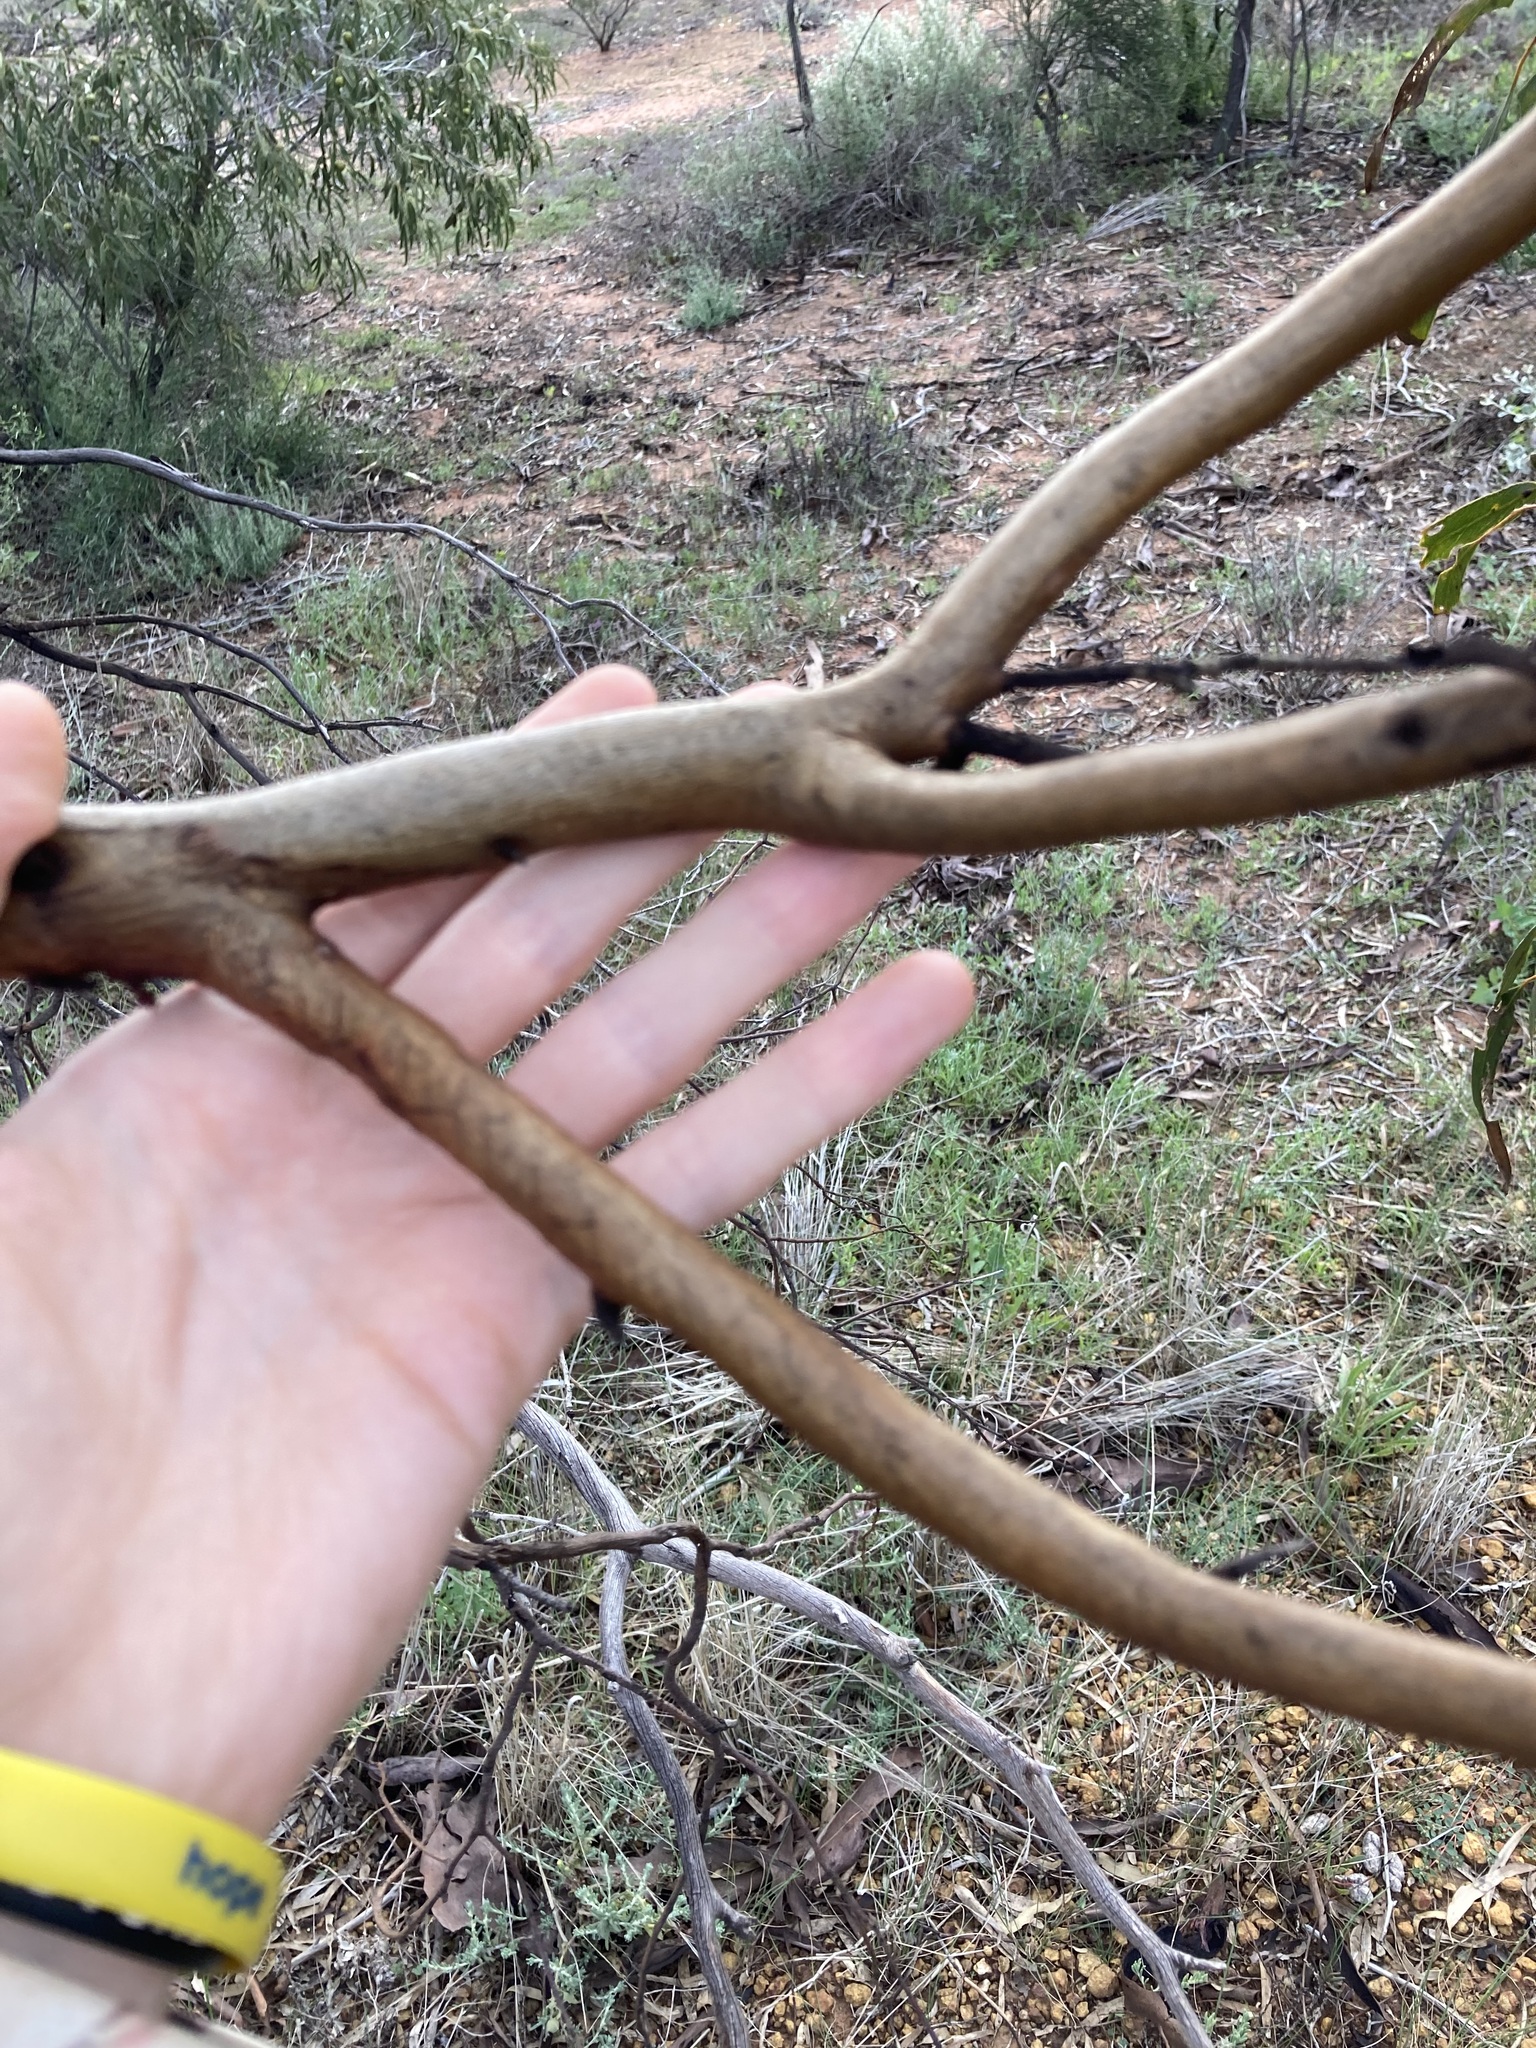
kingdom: Plantae
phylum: Tracheophyta
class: Magnoliopsida
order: Myrtales
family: Myrtaceae
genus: Eucalyptus
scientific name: Eucalyptus loxophleba
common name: York gum
